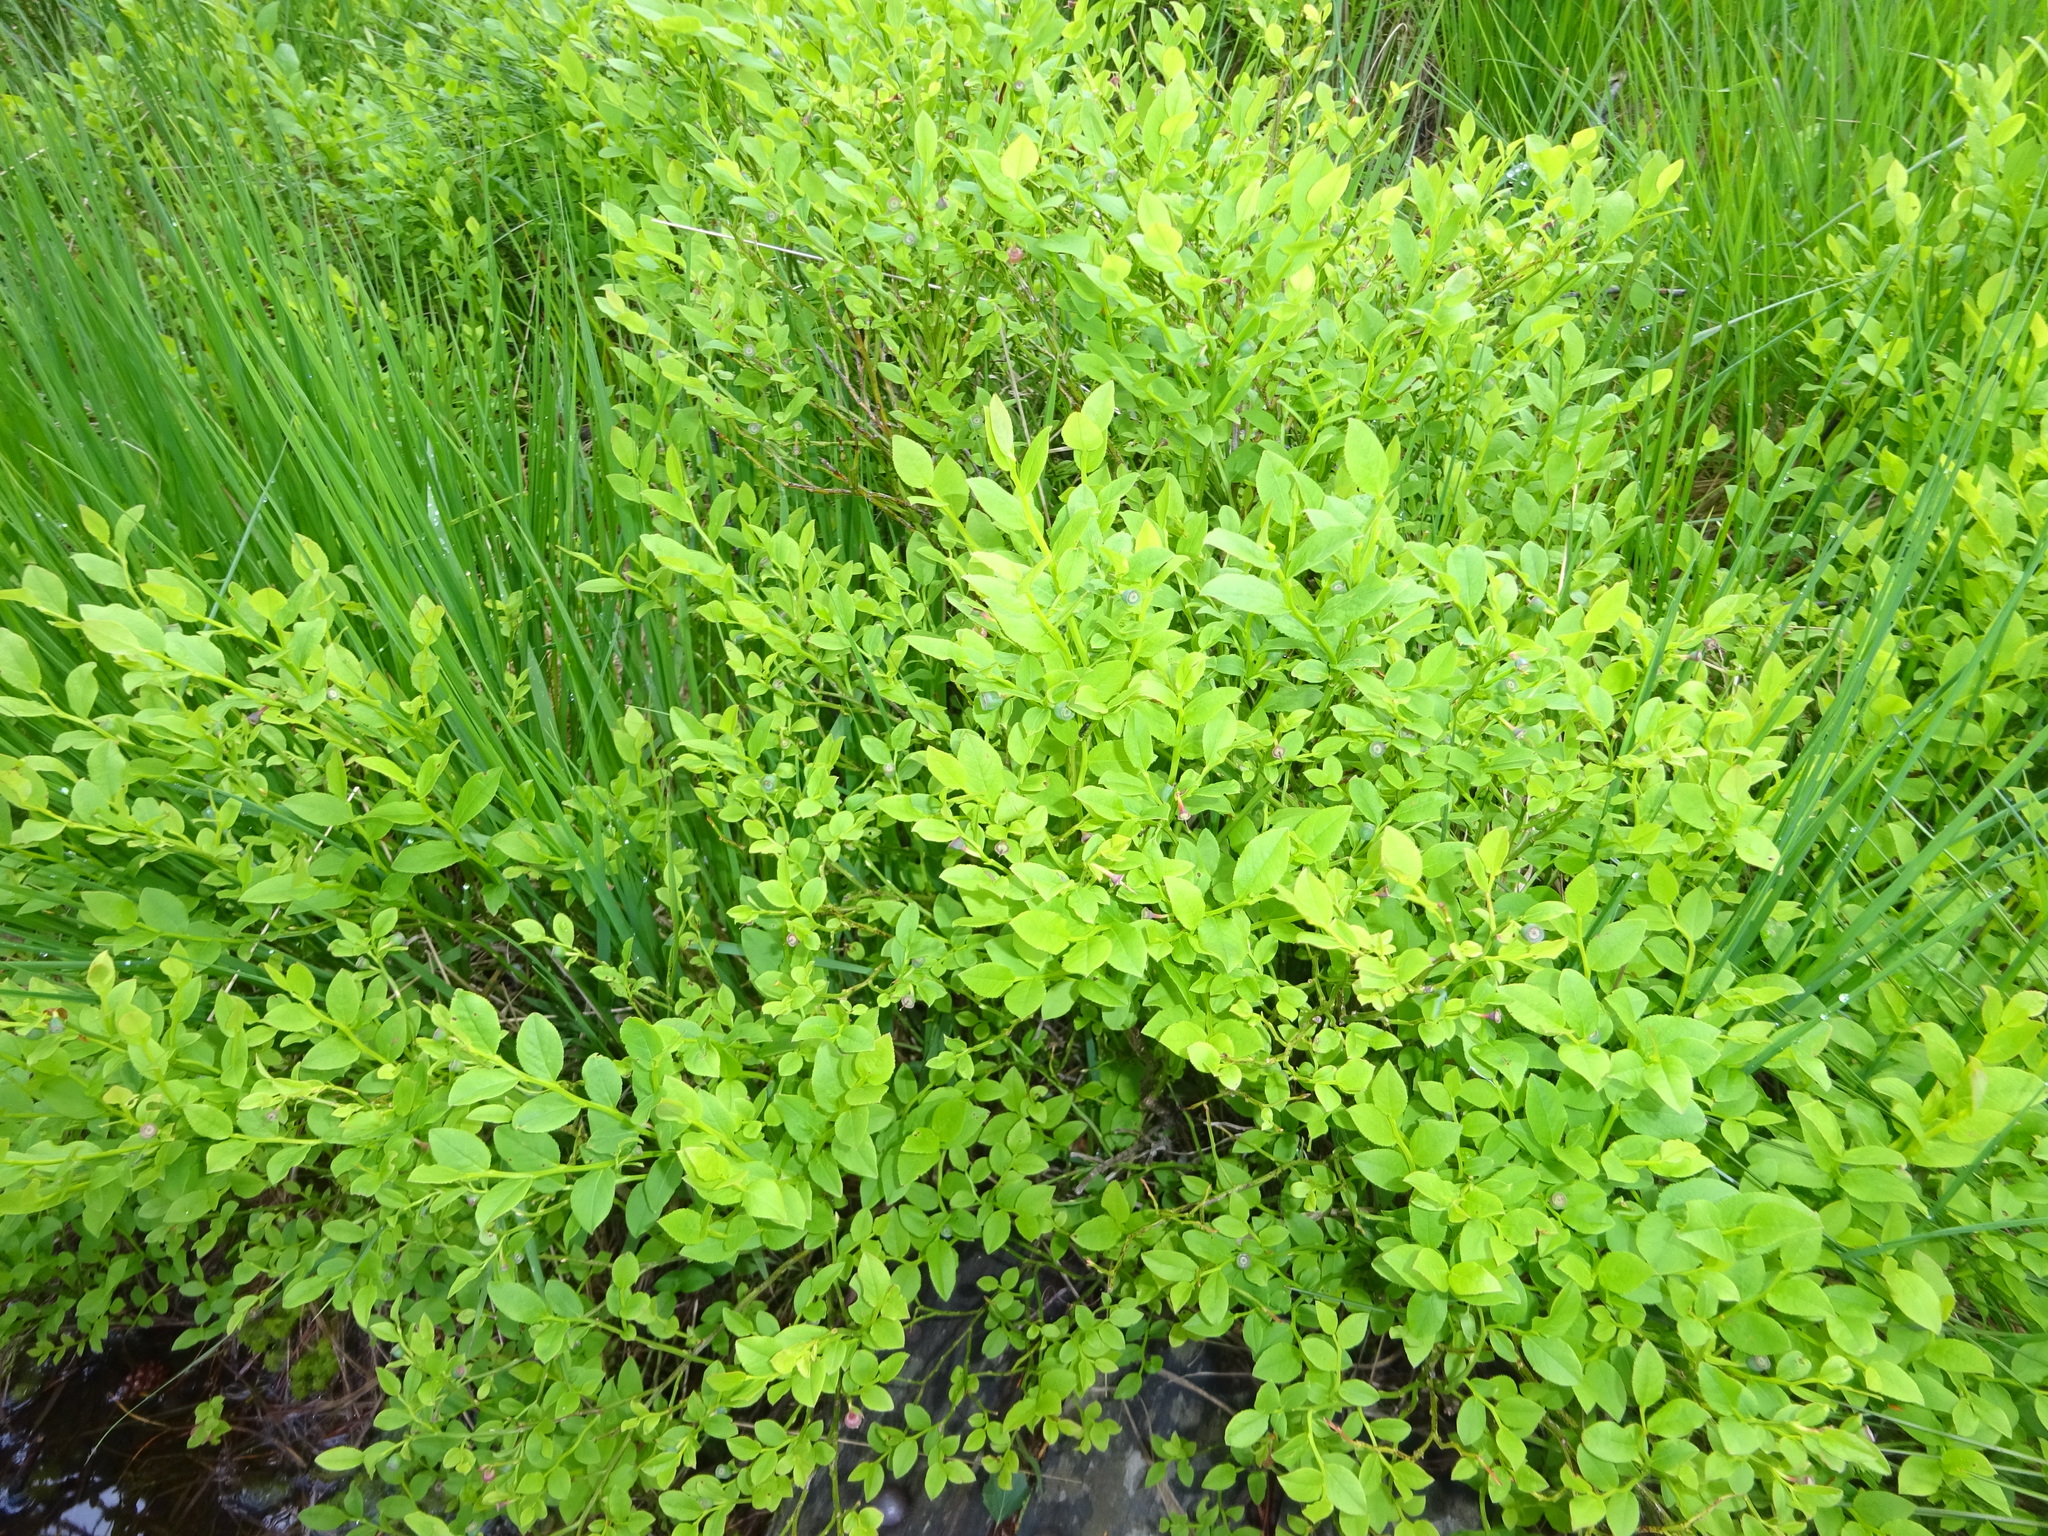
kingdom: Plantae
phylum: Tracheophyta
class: Magnoliopsida
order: Ericales
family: Ericaceae
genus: Vaccinium
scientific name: Vaccinium myrtillus
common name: Bilberry
